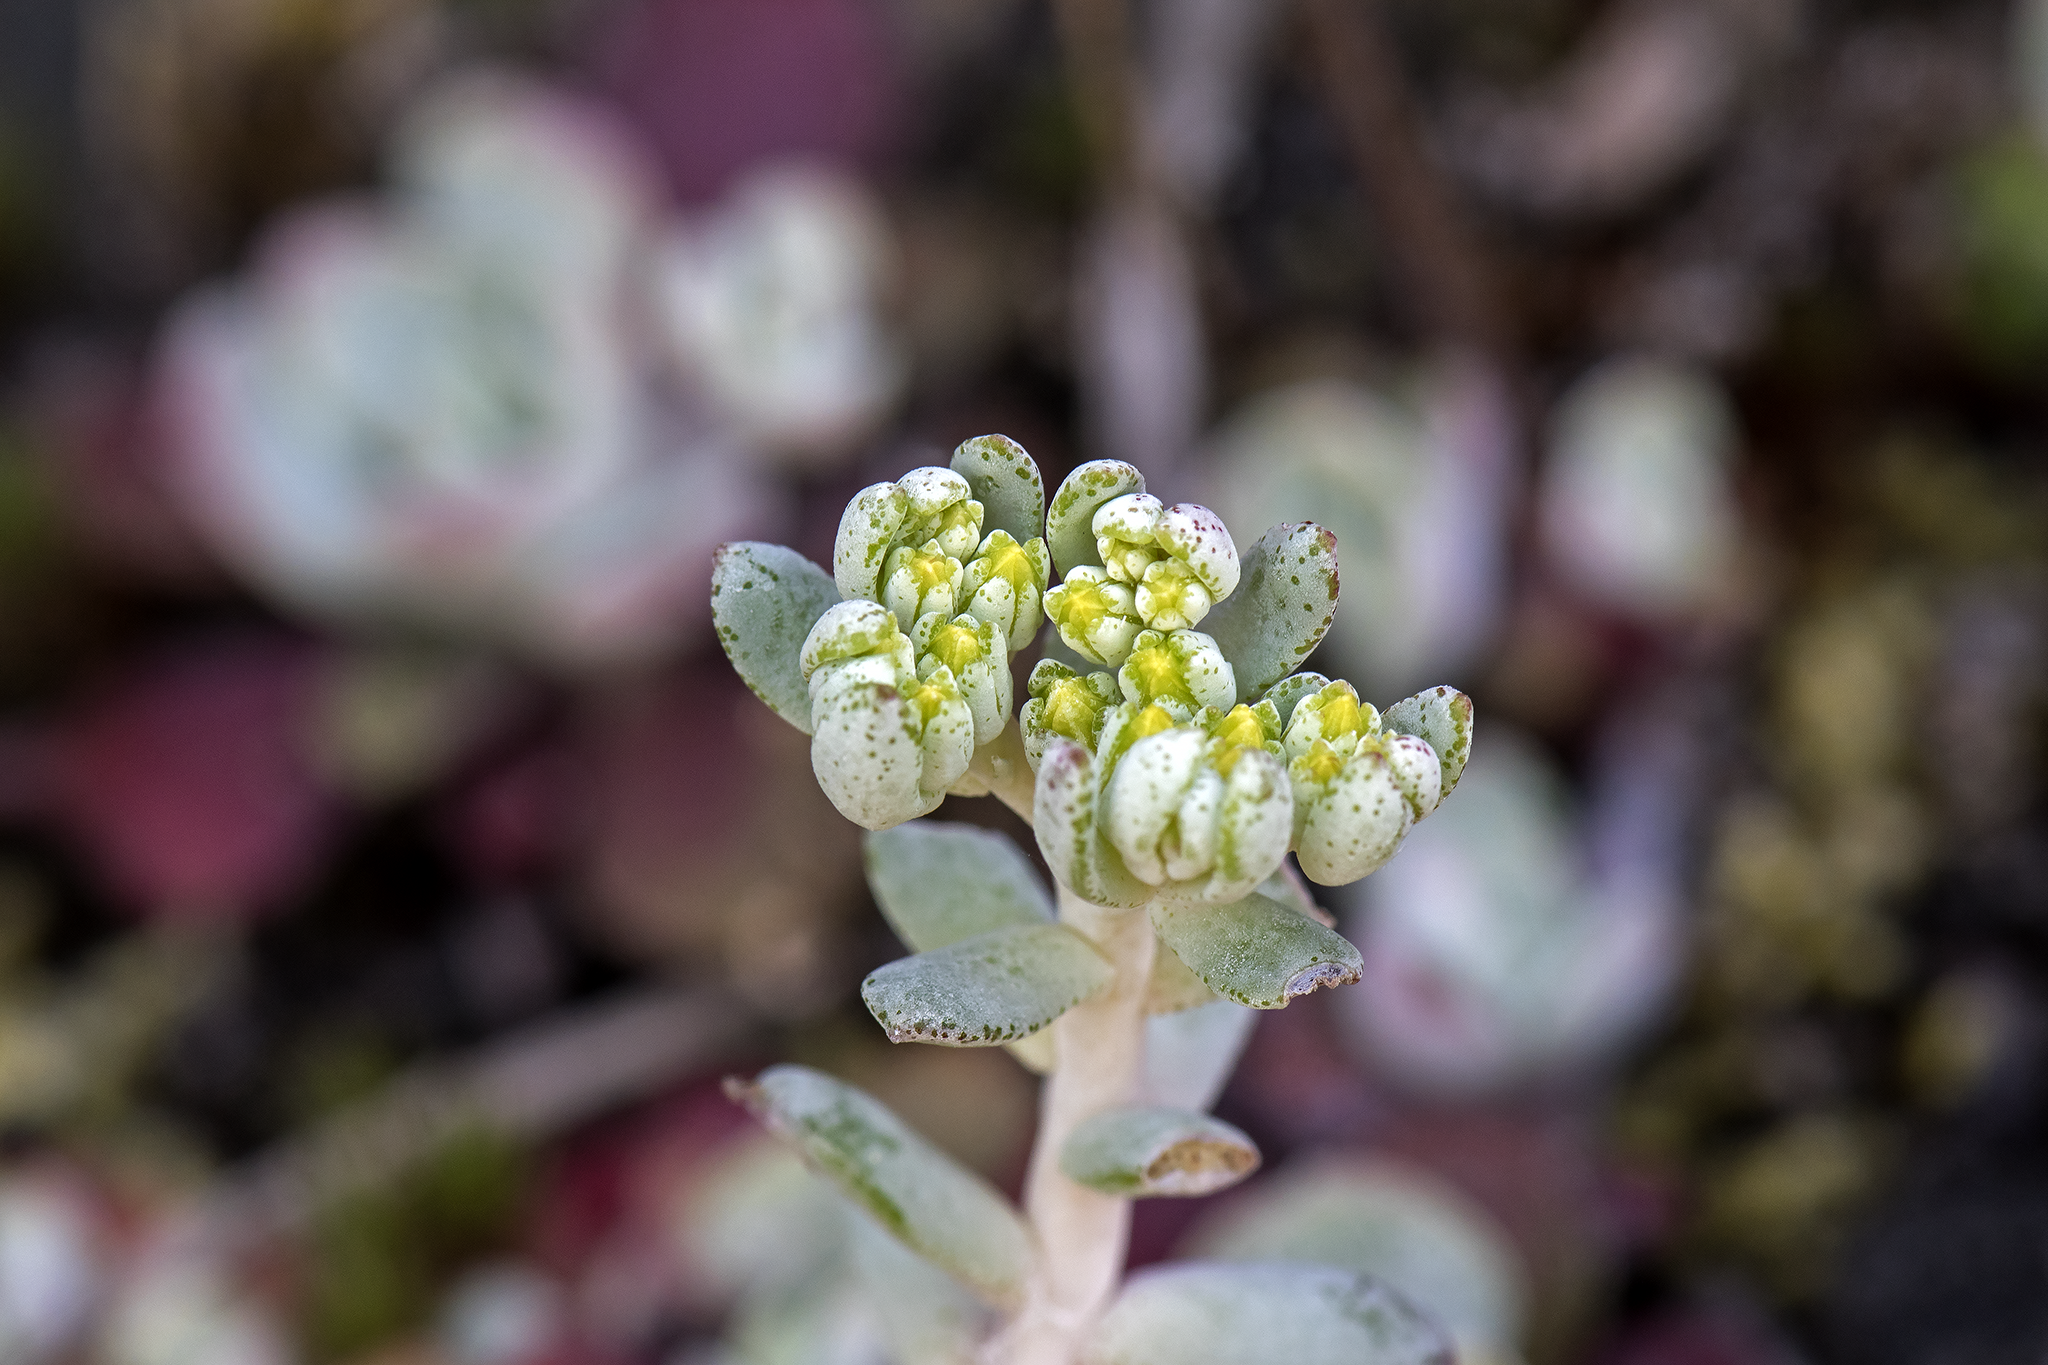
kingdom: Plantae
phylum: Tracheophyta
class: Magnoliopsida
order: Saxifragales
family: Crassulaceae
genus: Sedum
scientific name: Sedum spathulifolium
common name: Colorado stonecrop
